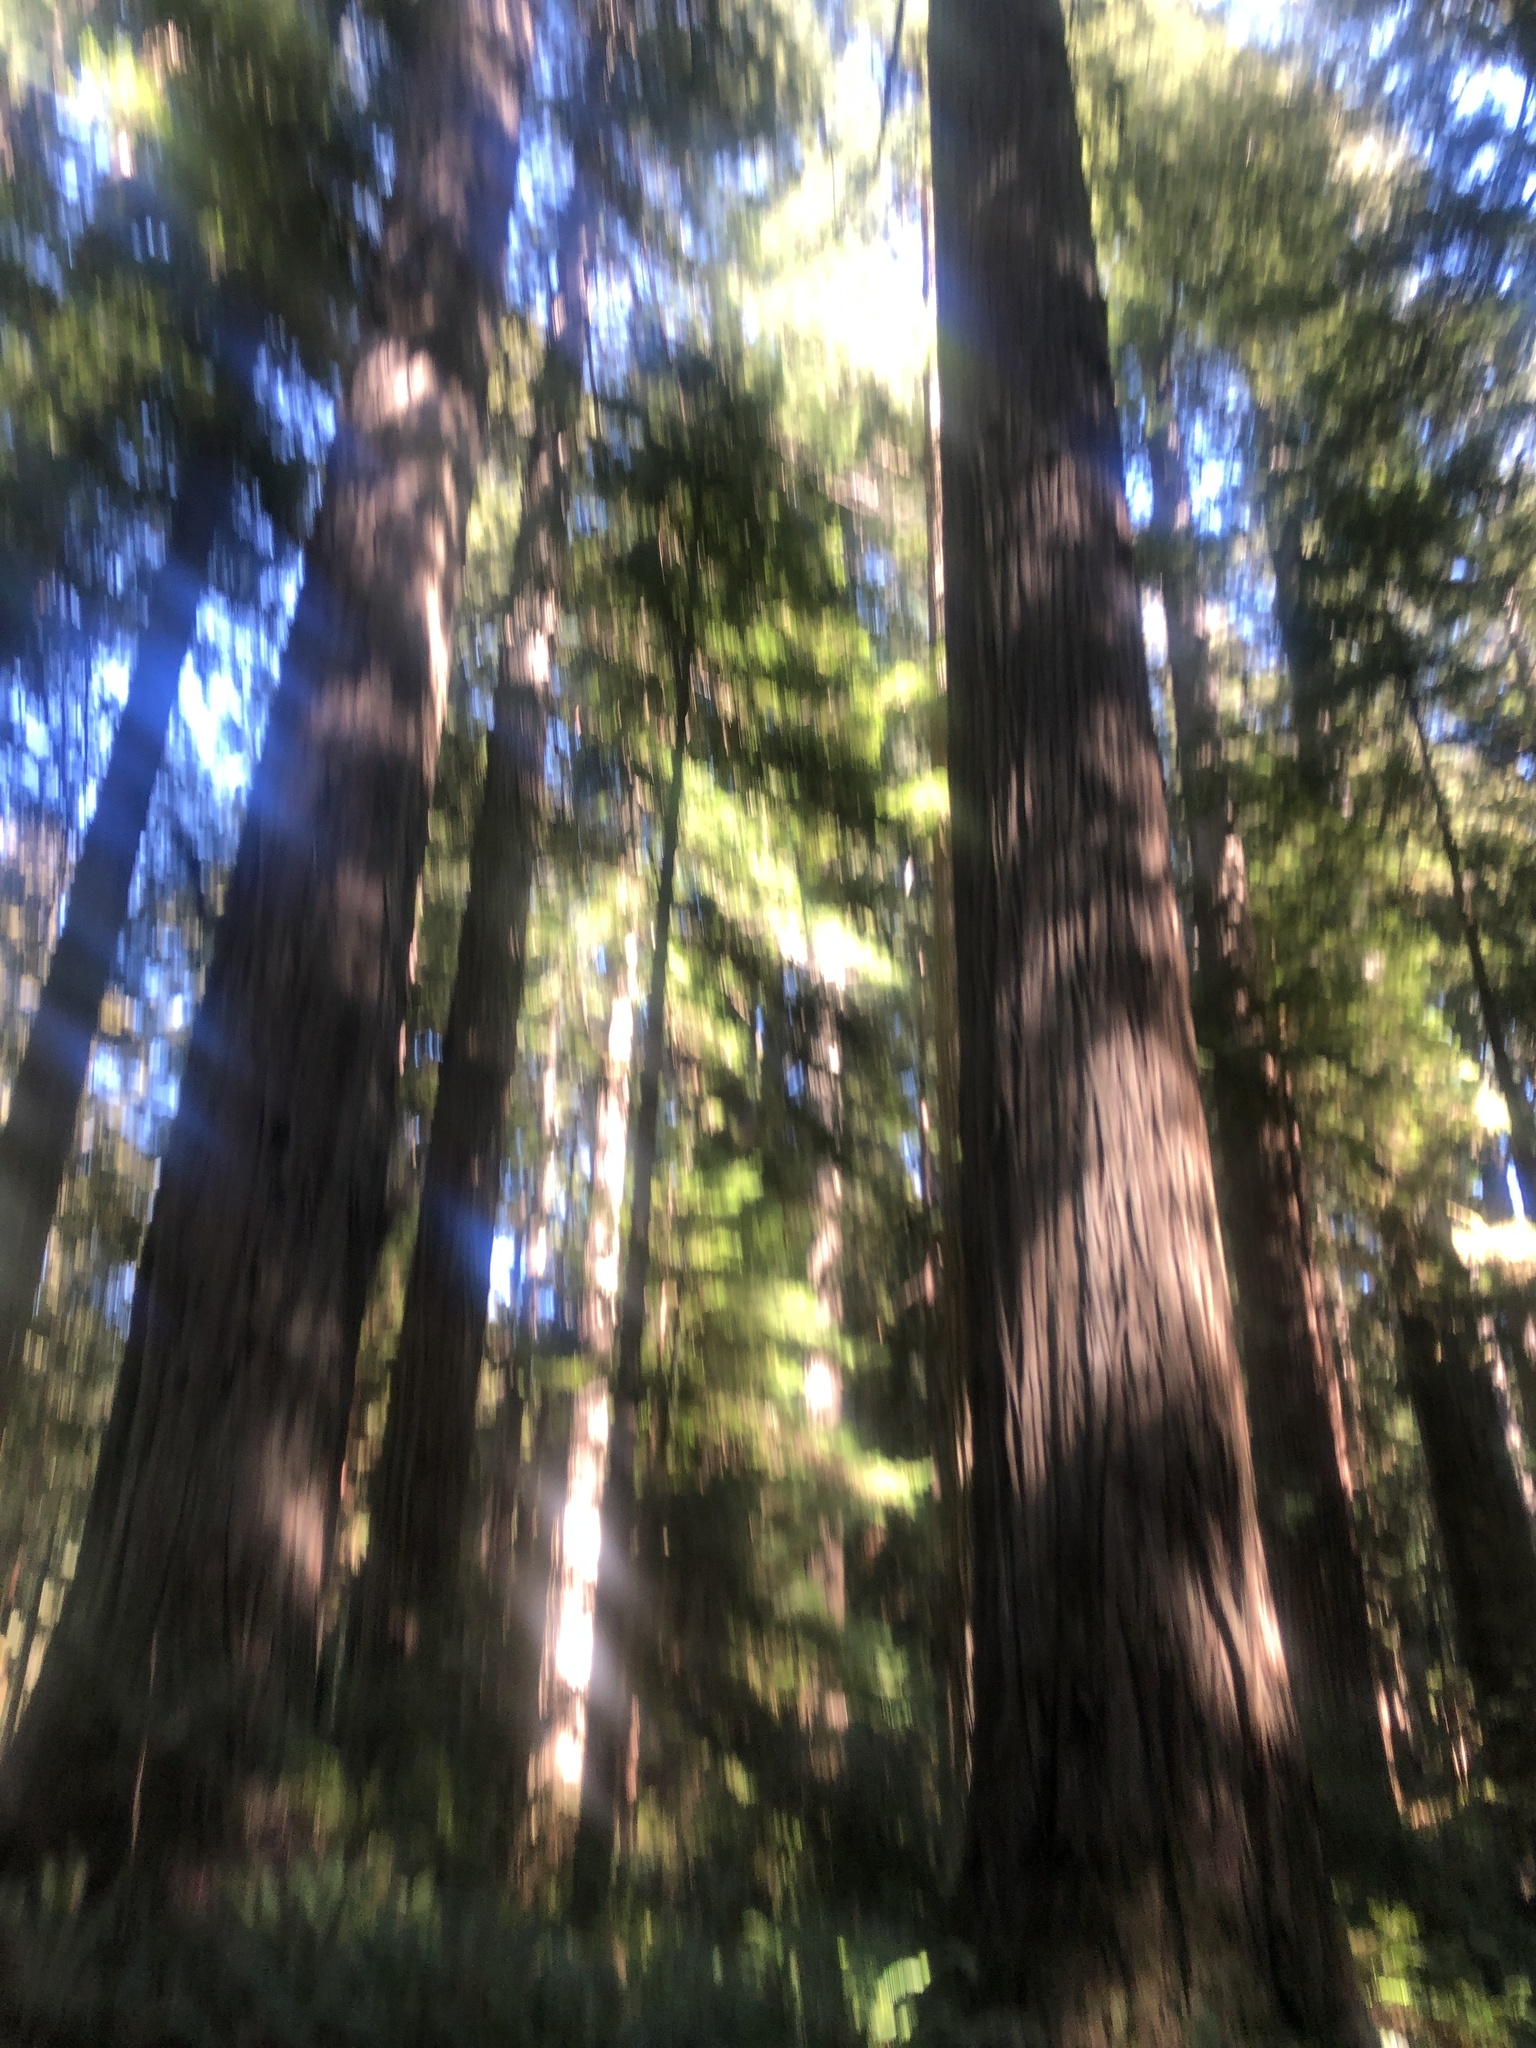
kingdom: Plantae
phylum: Tracheophyta
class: Pinopsida
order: Pinales
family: Cupressaceae
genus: Sequoia
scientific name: Sequoia sempervirens
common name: Coast redwood
